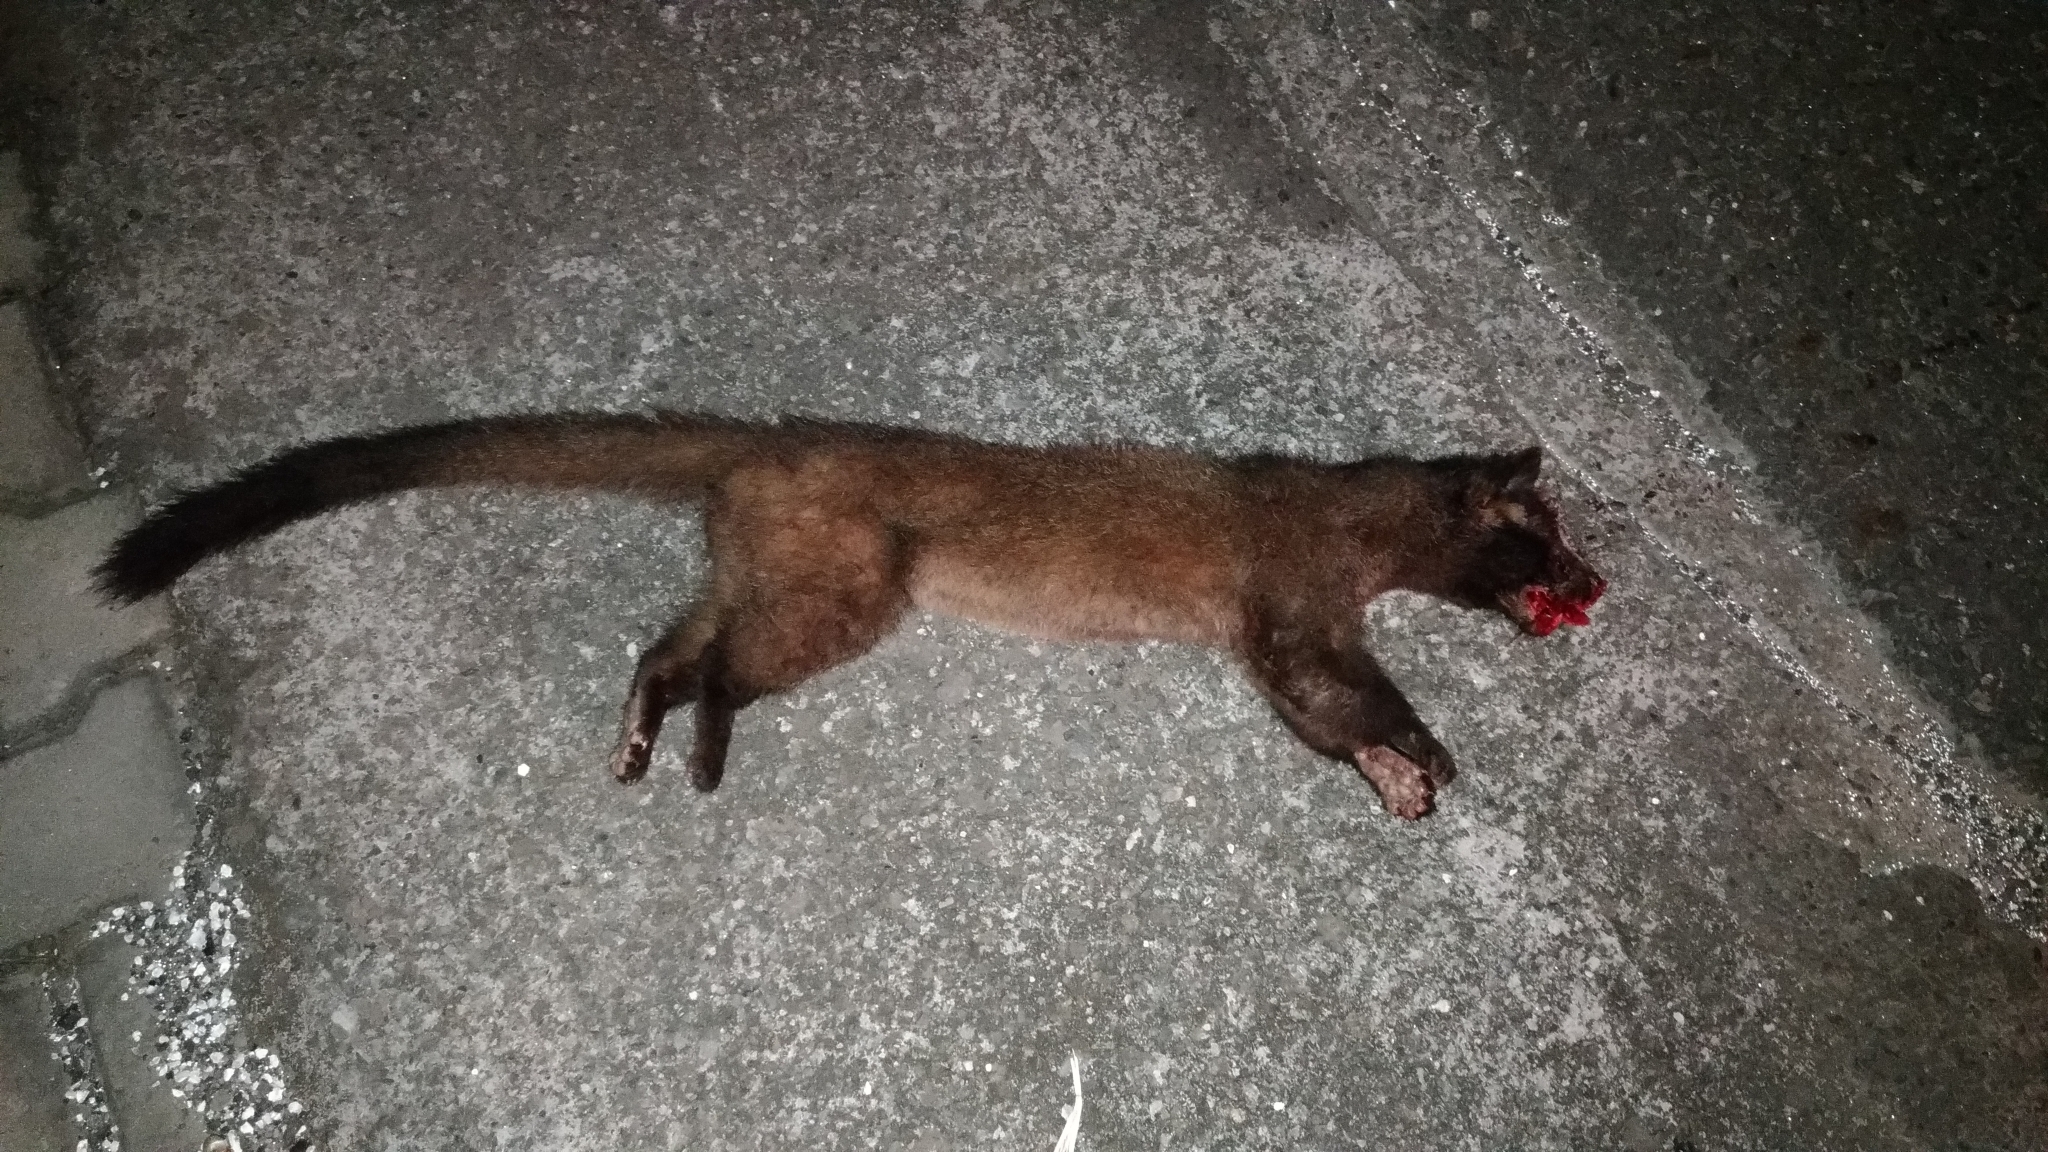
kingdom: Animalia
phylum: Chordata
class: Mammalia
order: Carnivora
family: Viverridae
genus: Paguma
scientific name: Paguma larvata
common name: Masked palm civet
